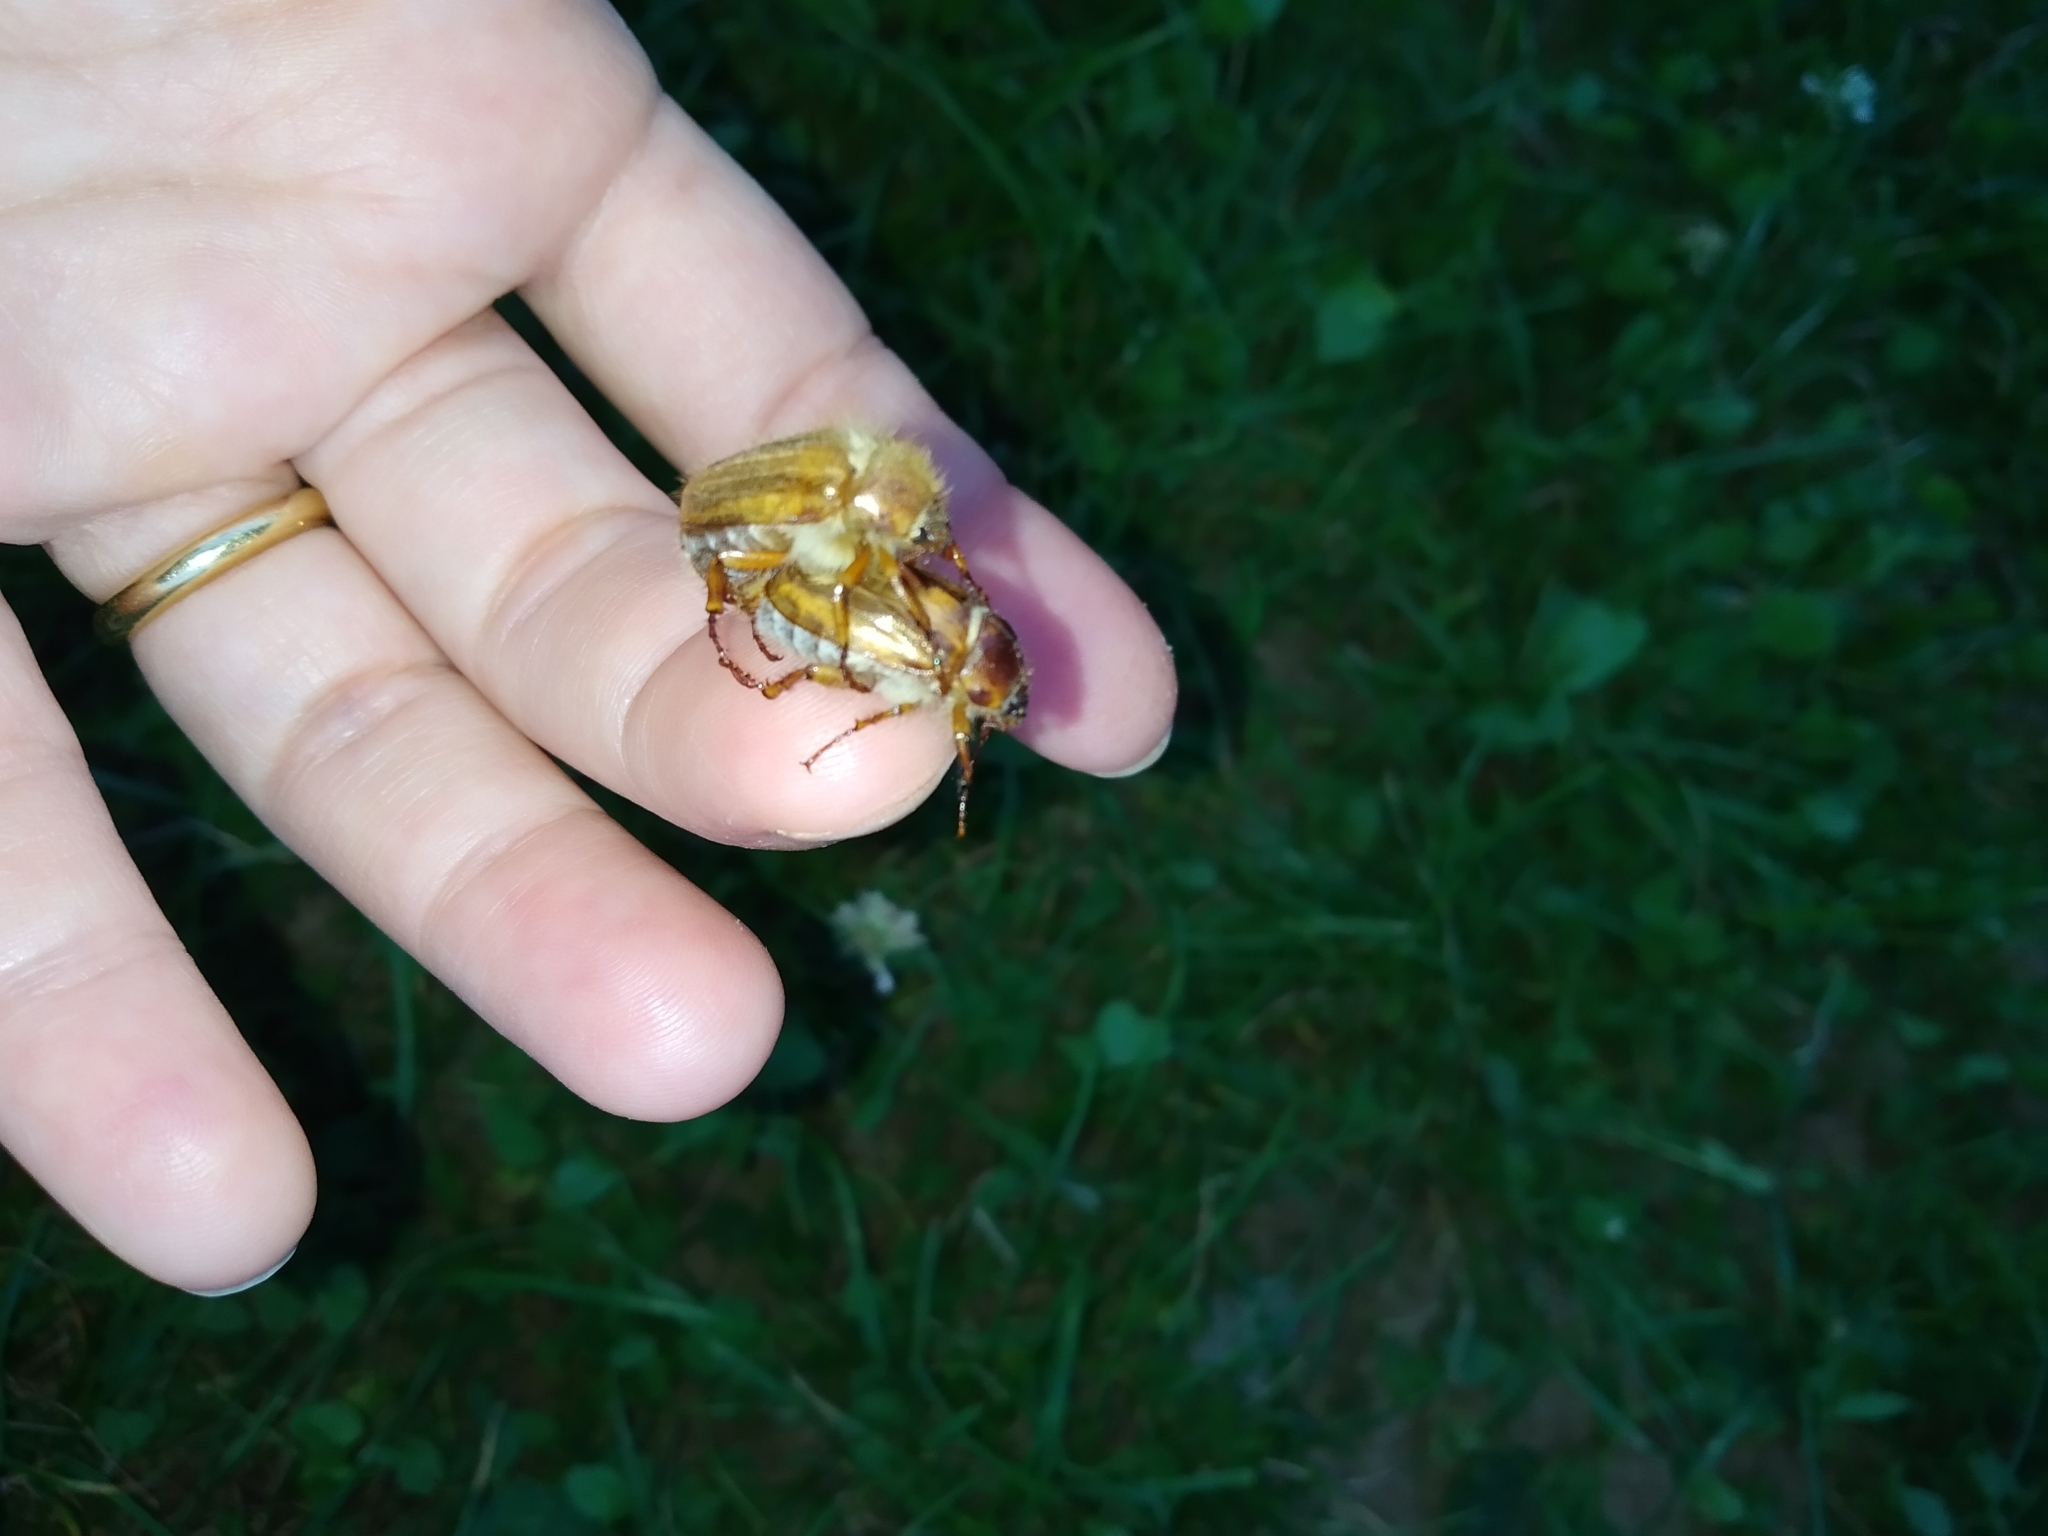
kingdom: Animalia
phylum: Arthropoda
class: Insecta
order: Coleoptera
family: Scarabaeidae
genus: Amphimallon
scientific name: Amphimallon solstitiale
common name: Summer chafer
